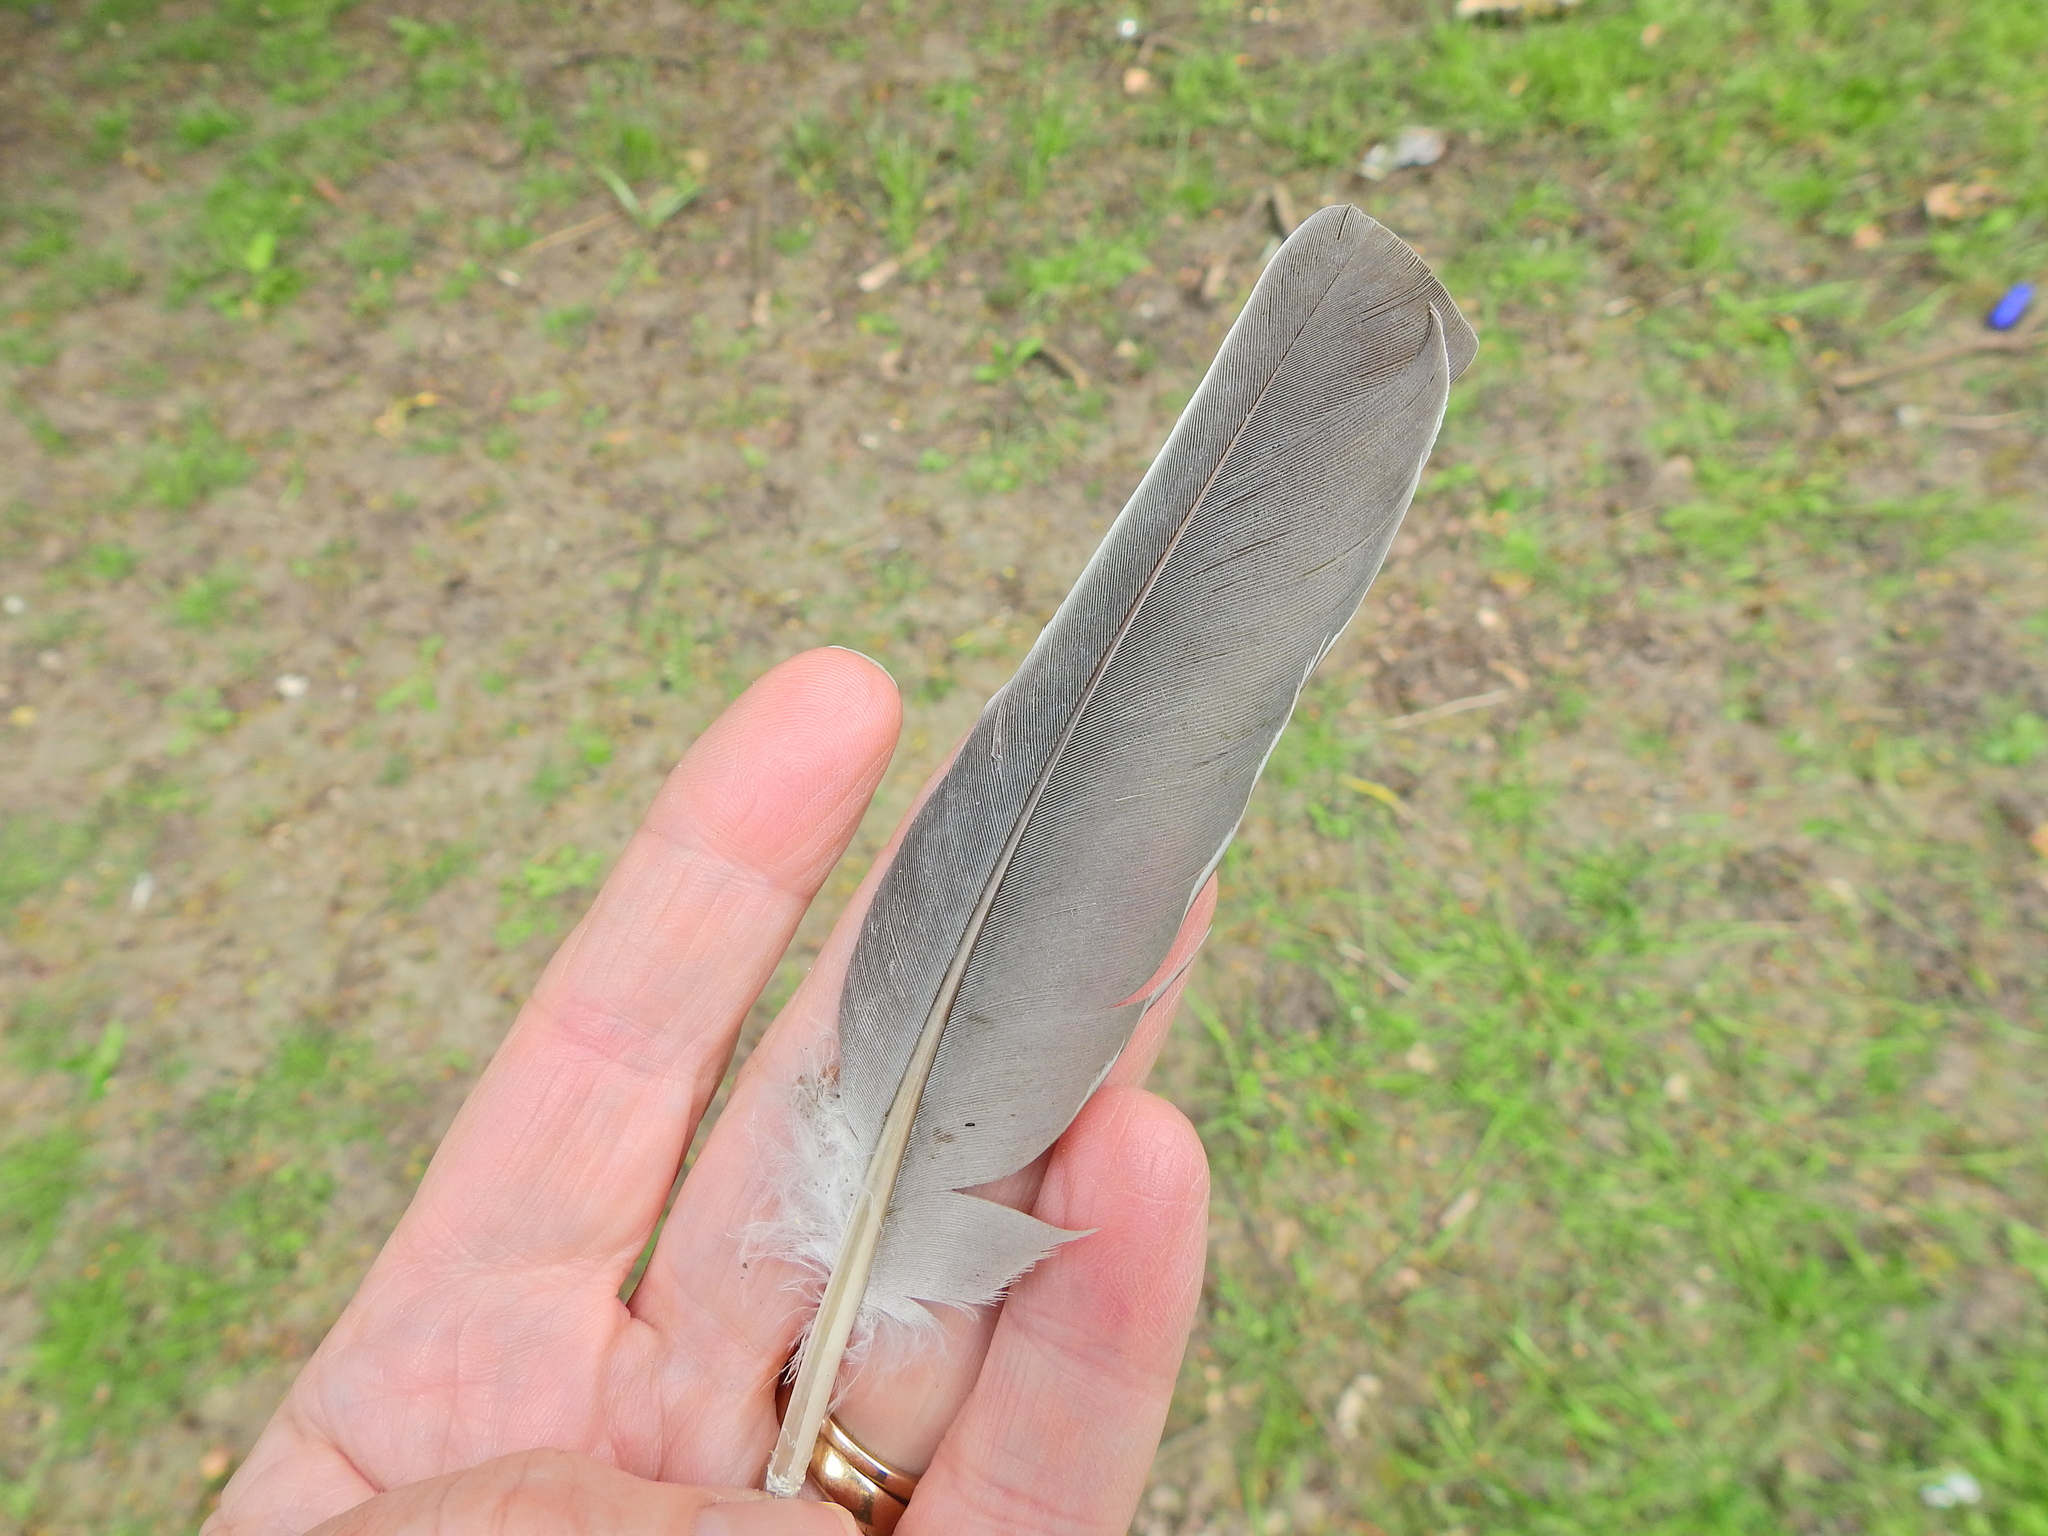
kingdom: Animalia
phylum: Chordata
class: Aves
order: Columbiformes
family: Columbidae
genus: Columba
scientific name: Columba palumbus
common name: Common wood pigeon
